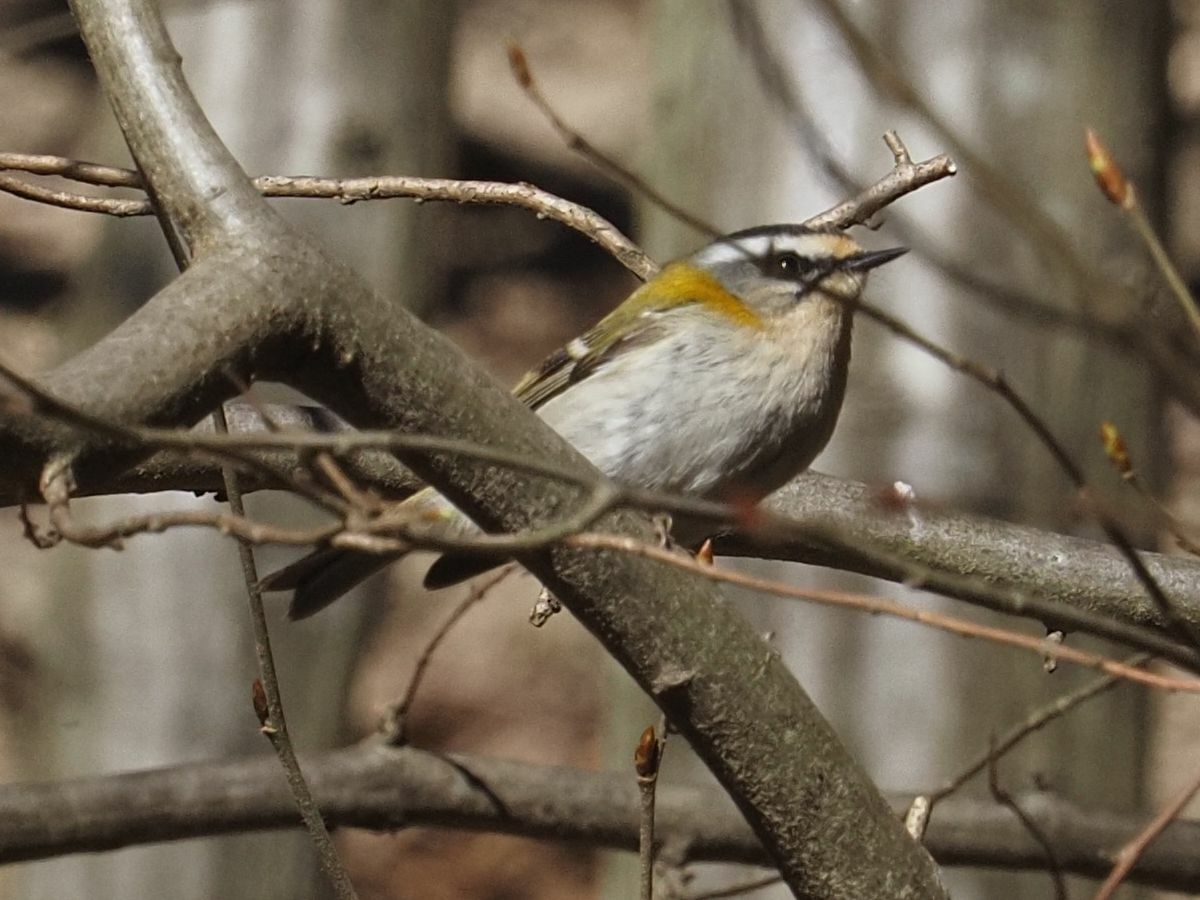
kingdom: Animalia
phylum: Chordata
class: Aves
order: Passeriformes
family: Regulidae
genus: Regulus
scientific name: Regulus ignicapilla
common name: Firecrest
